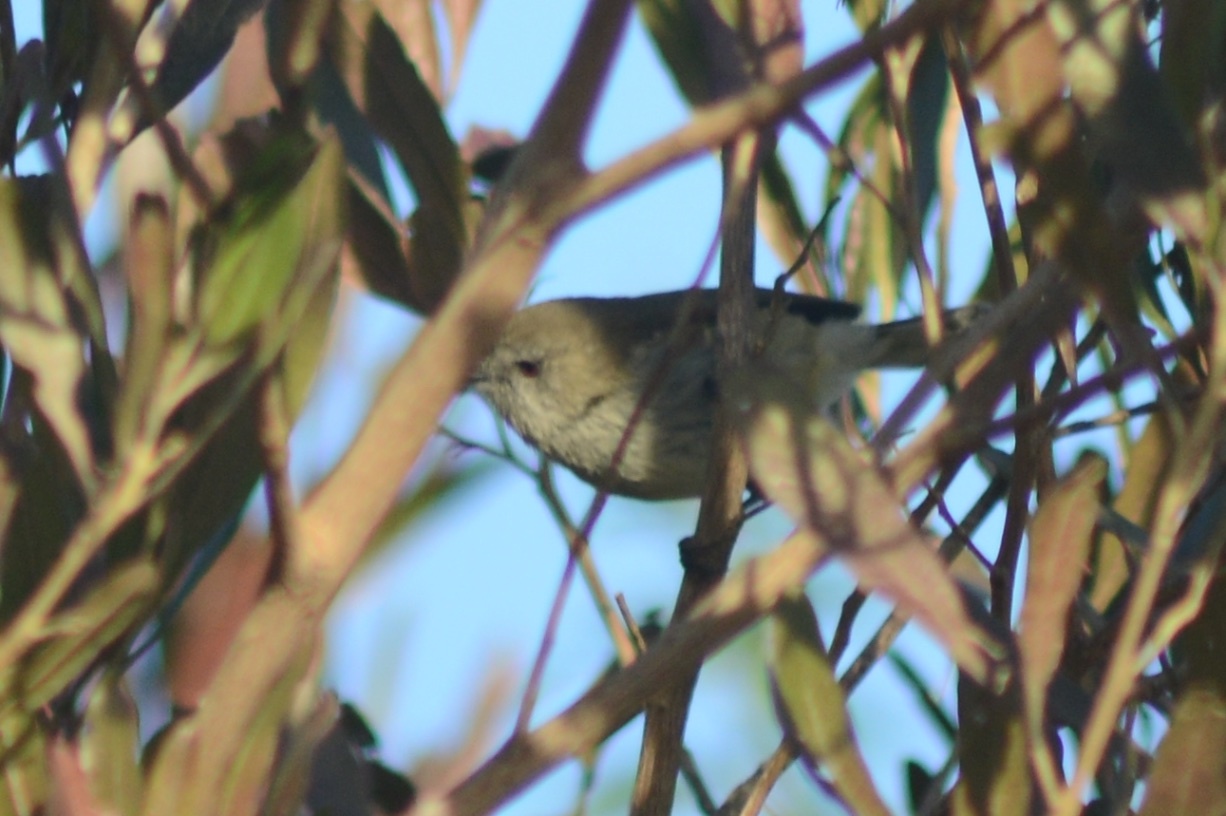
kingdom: Animalia
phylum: Chordata
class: Aves
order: Passeriformes
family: Acanthizidae
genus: Gerygone
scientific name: Gerygone igata
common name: Grey gerygone
